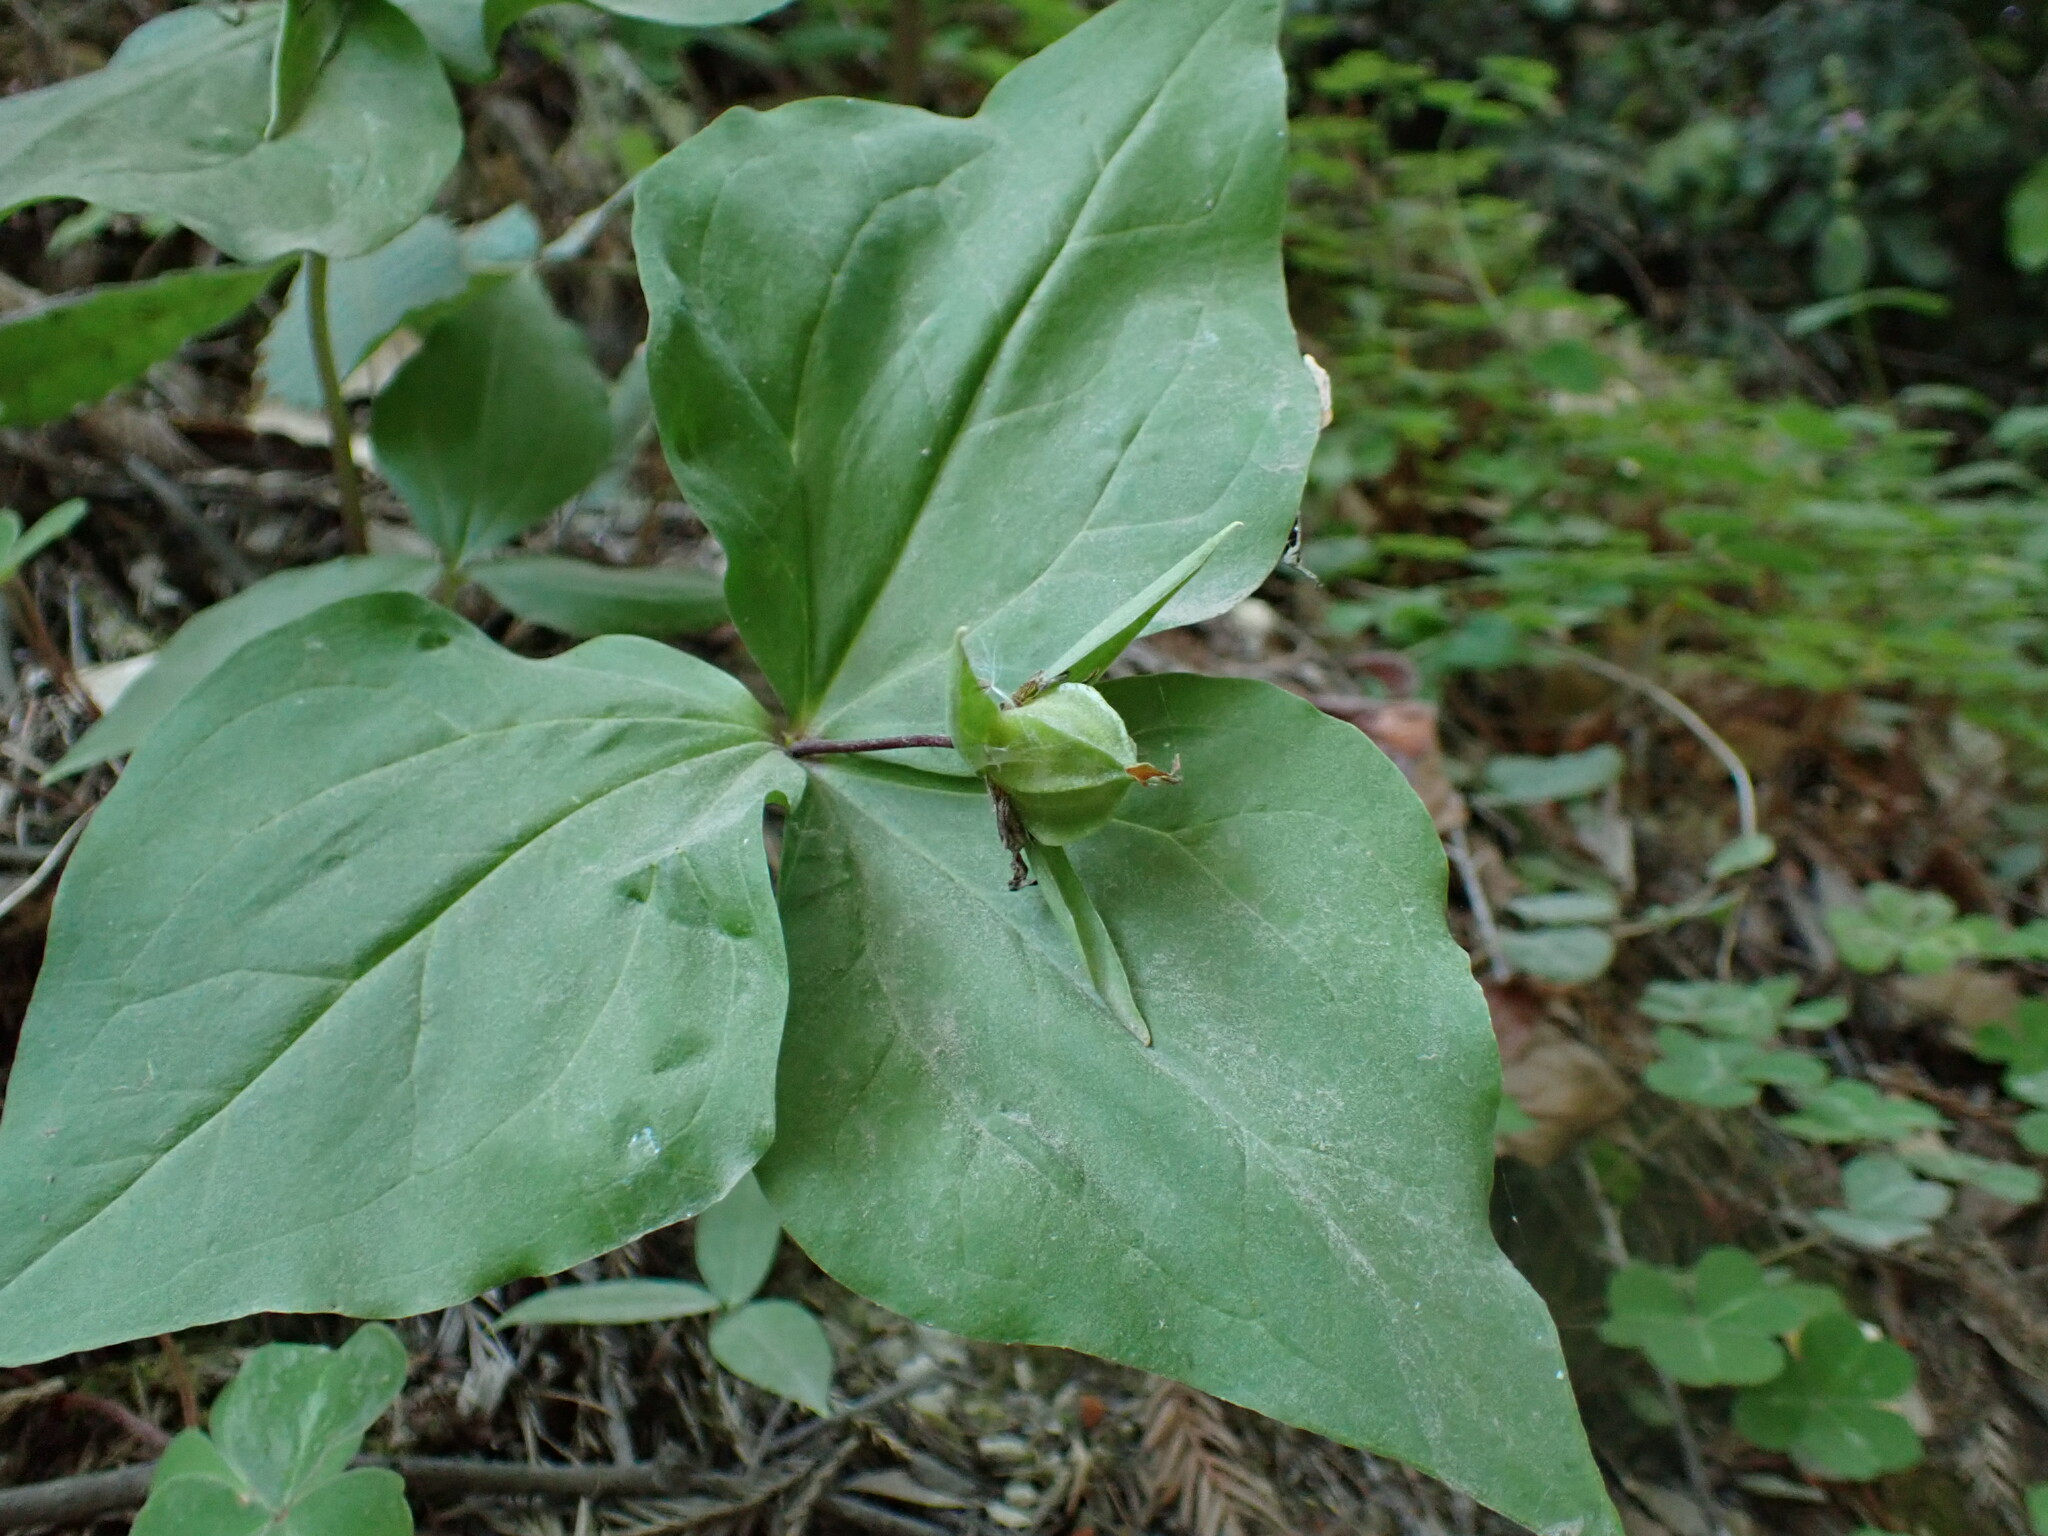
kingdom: Plantae
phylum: Tracheophyta
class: Liliopsida
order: Liliales
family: Melanthiaceae
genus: Trillium
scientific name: Trillium ovatum
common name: Pacific trillium
